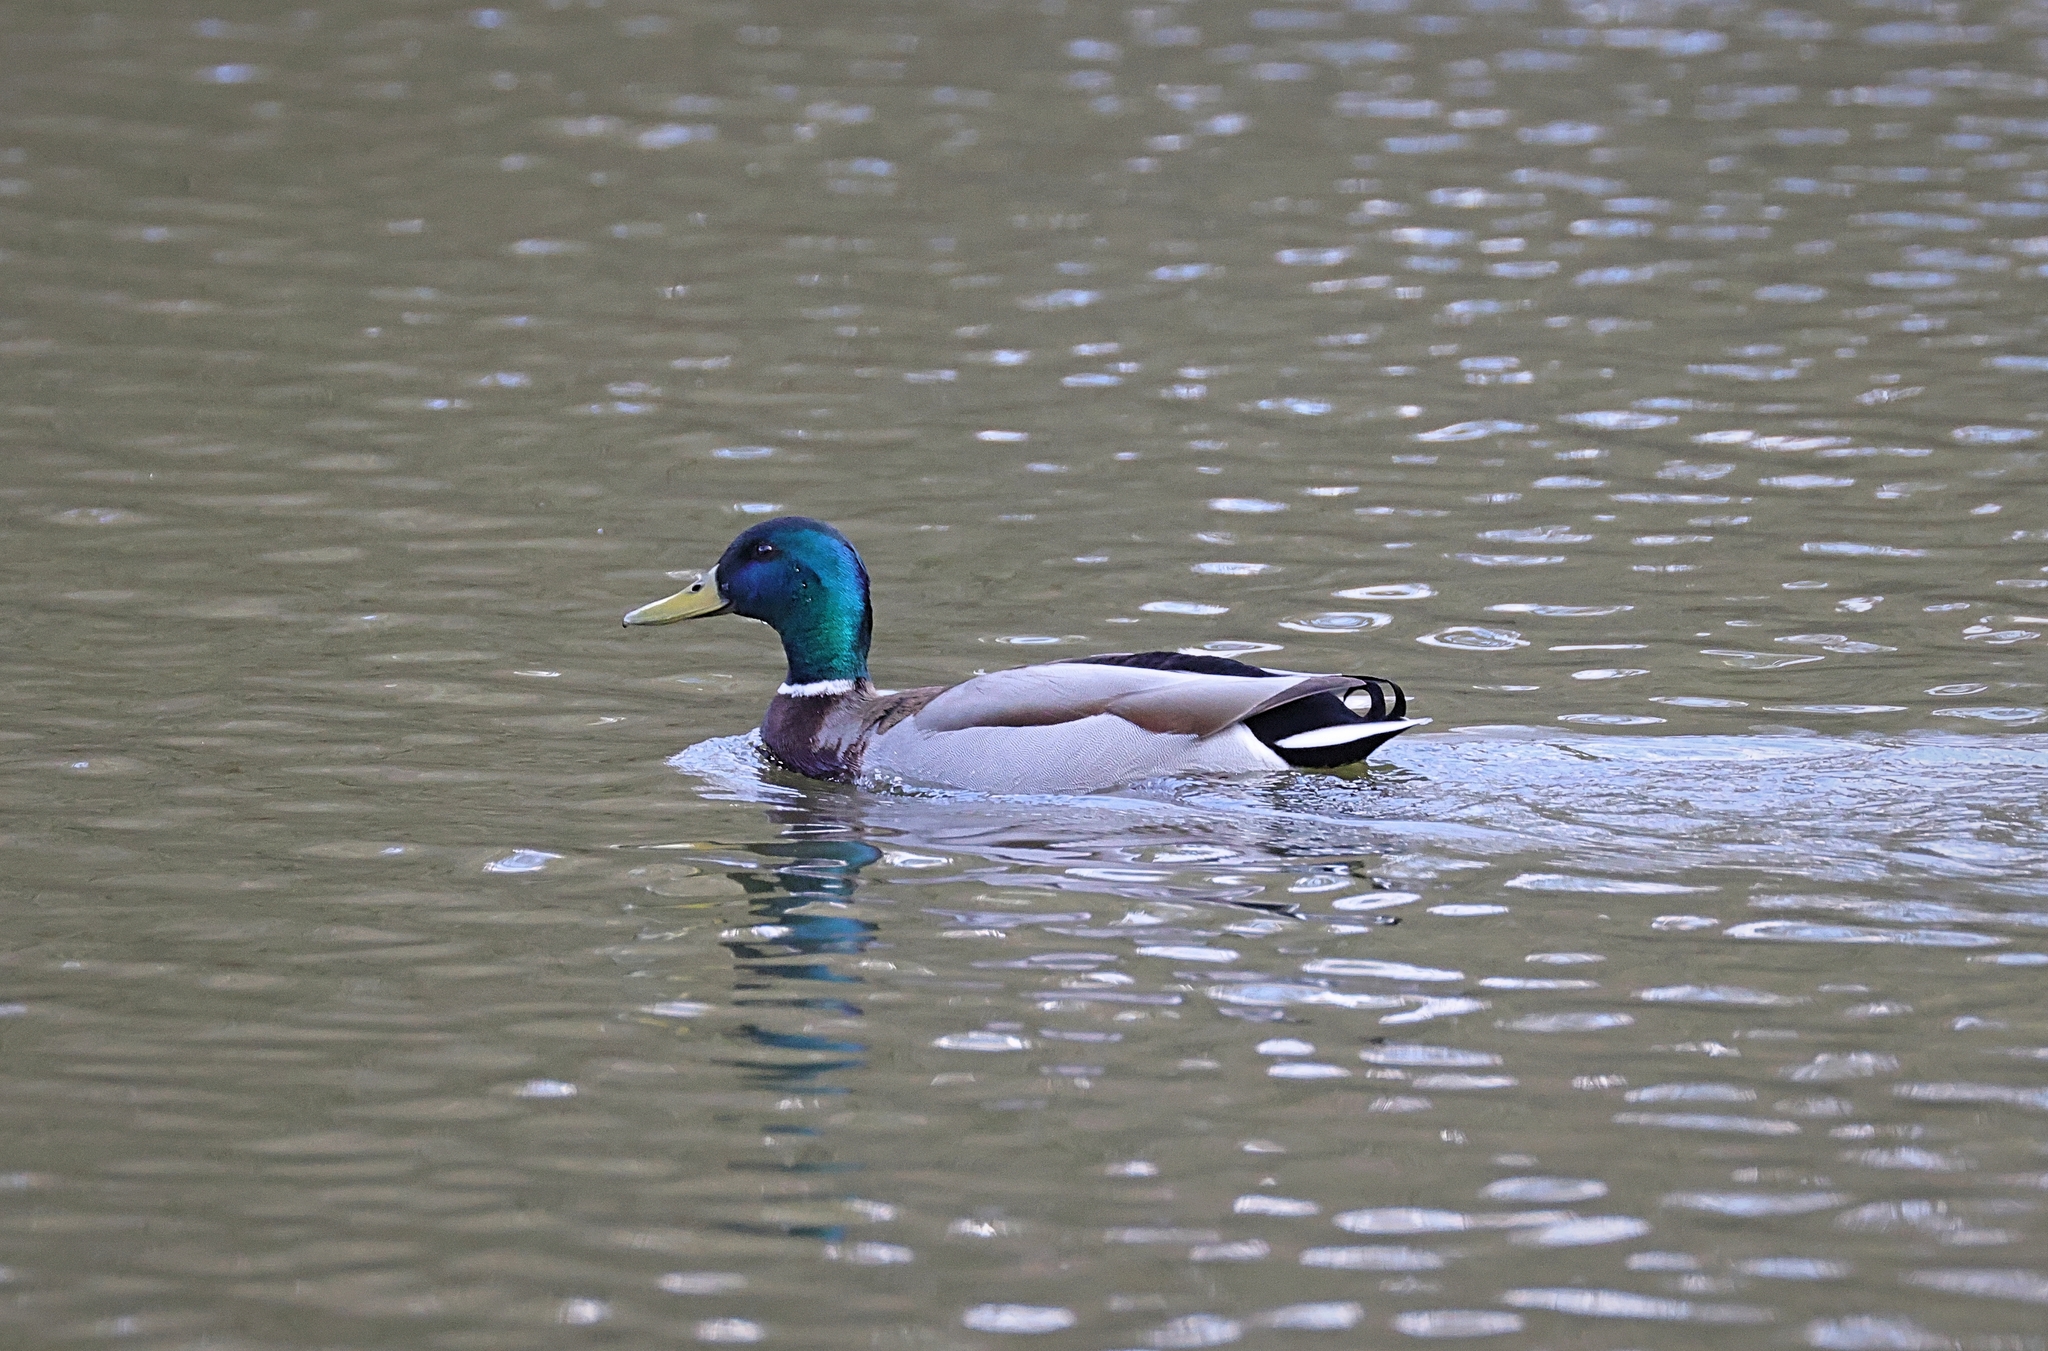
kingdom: Animalia
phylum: Chordata
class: Aves
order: Anseriformes
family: Anatidae
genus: Anas
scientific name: Anas platyrhynchos
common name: Mallard
